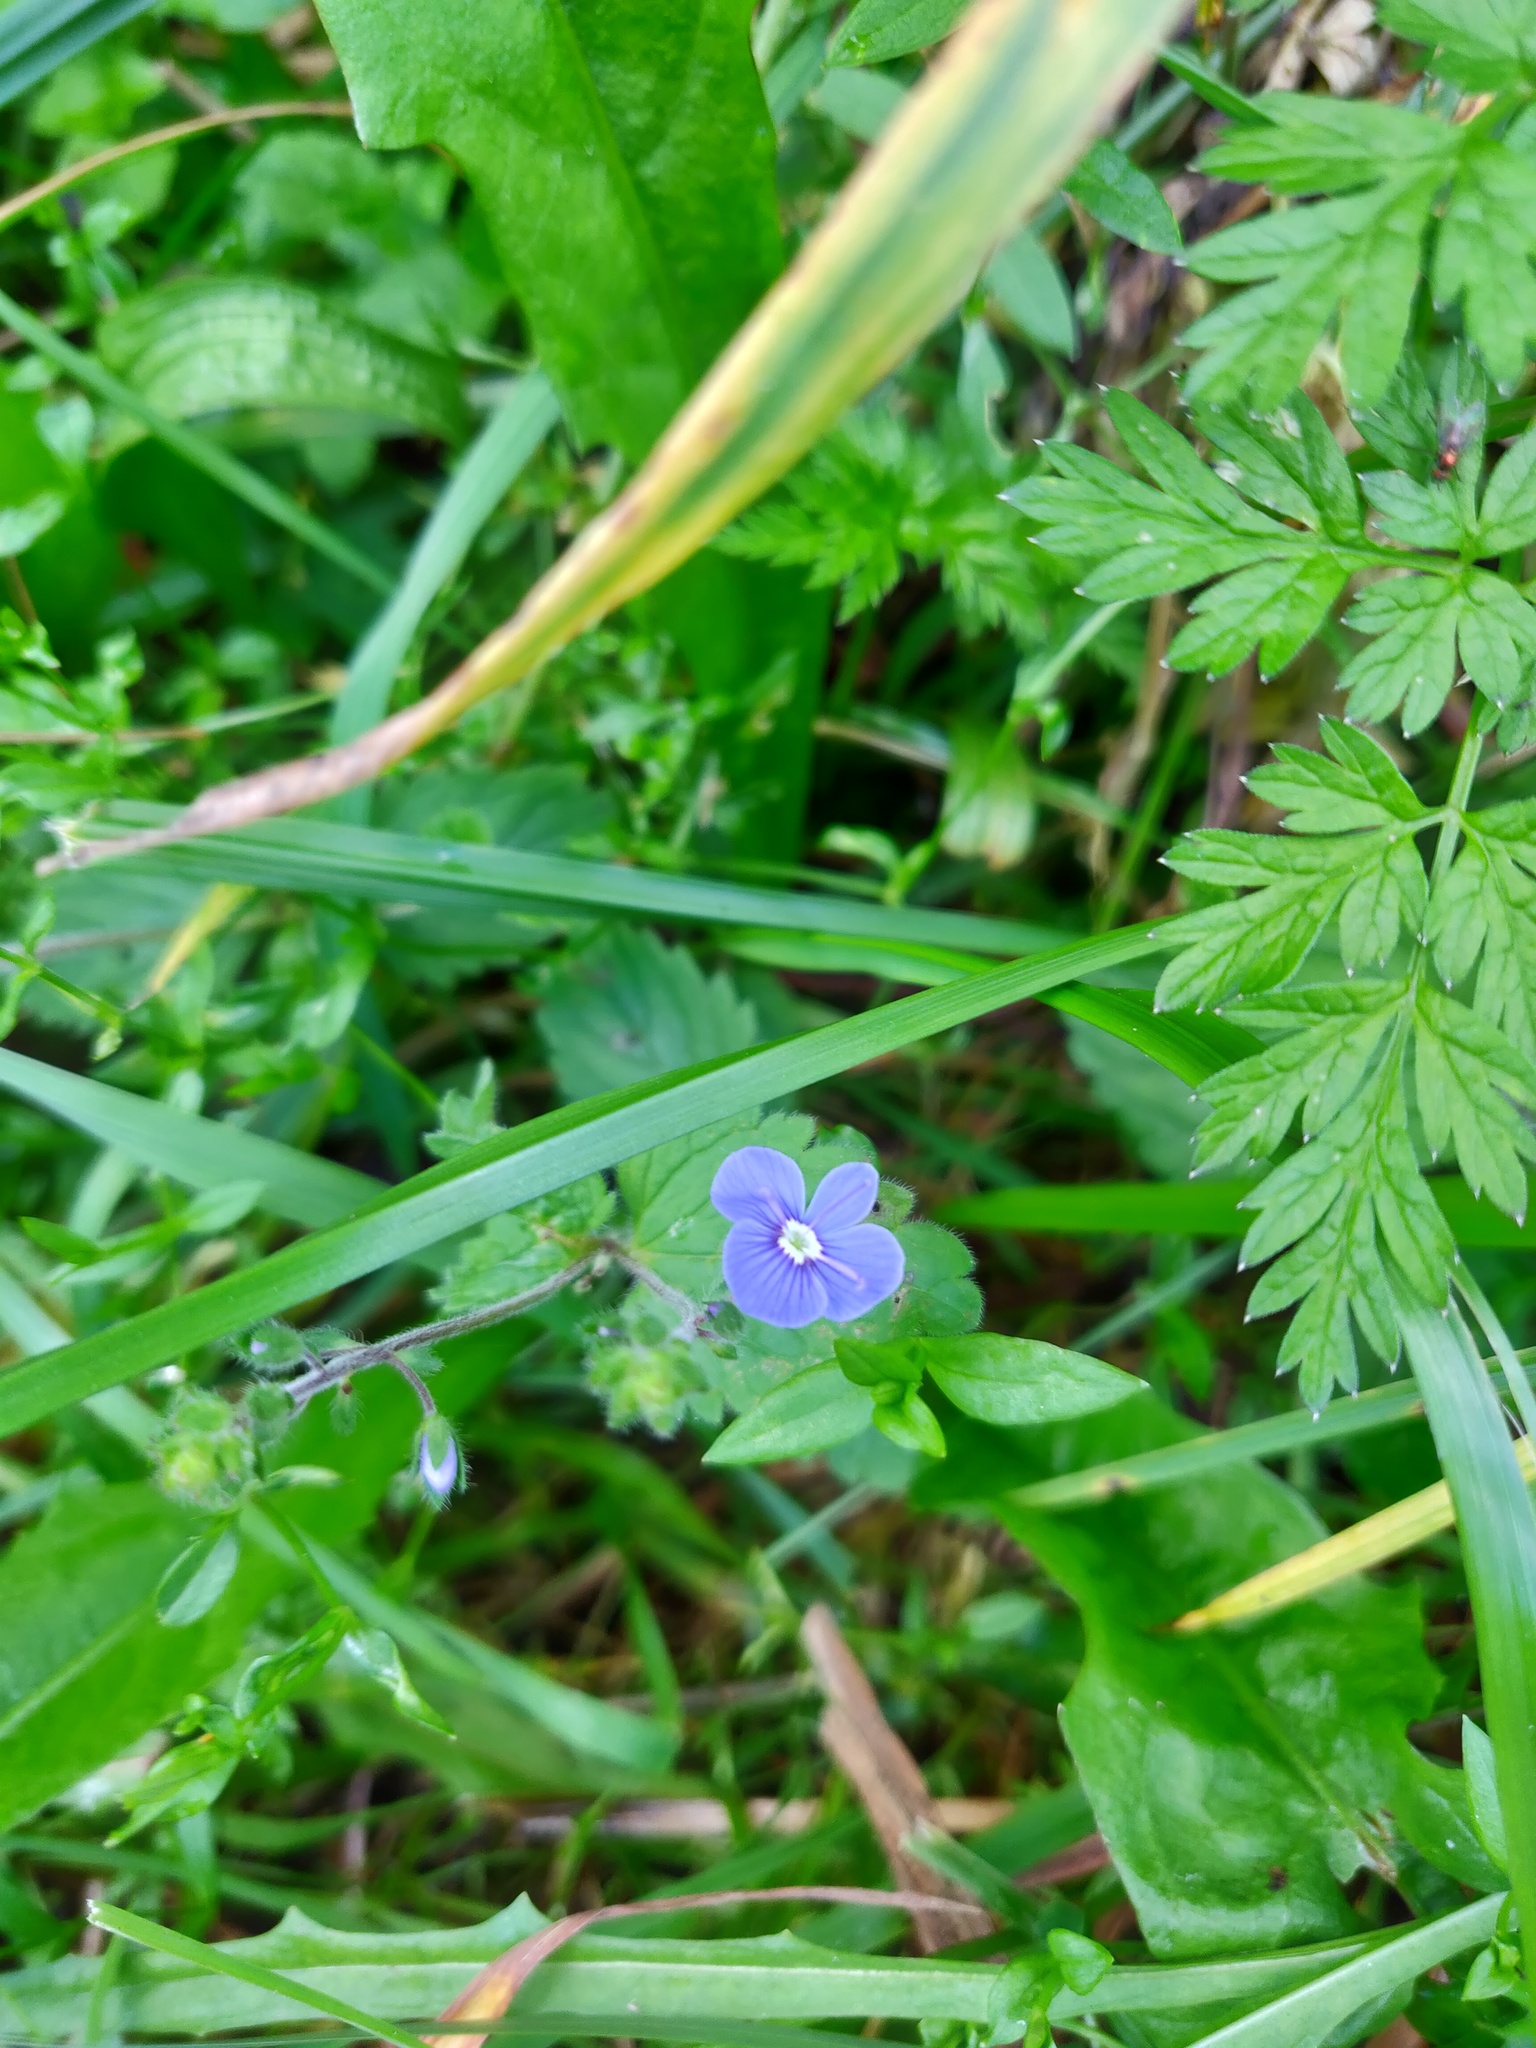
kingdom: Plantae
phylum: Tracheophyta
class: Magnoliopsida
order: Lamiales
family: Plantaginaceae
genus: Veronica
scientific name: Veronica chamaedrys
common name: Germander speedwell
